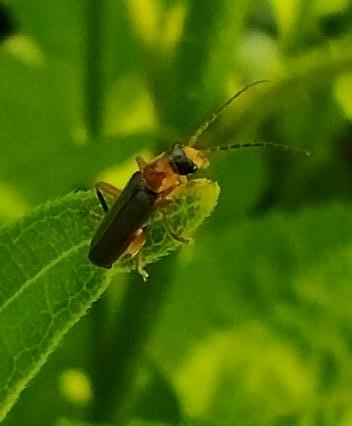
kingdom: Animalia
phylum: Arthropoda
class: Insecta
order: Coleoptera
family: Cantharidae
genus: Cantharis
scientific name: Cantharis lateralis
